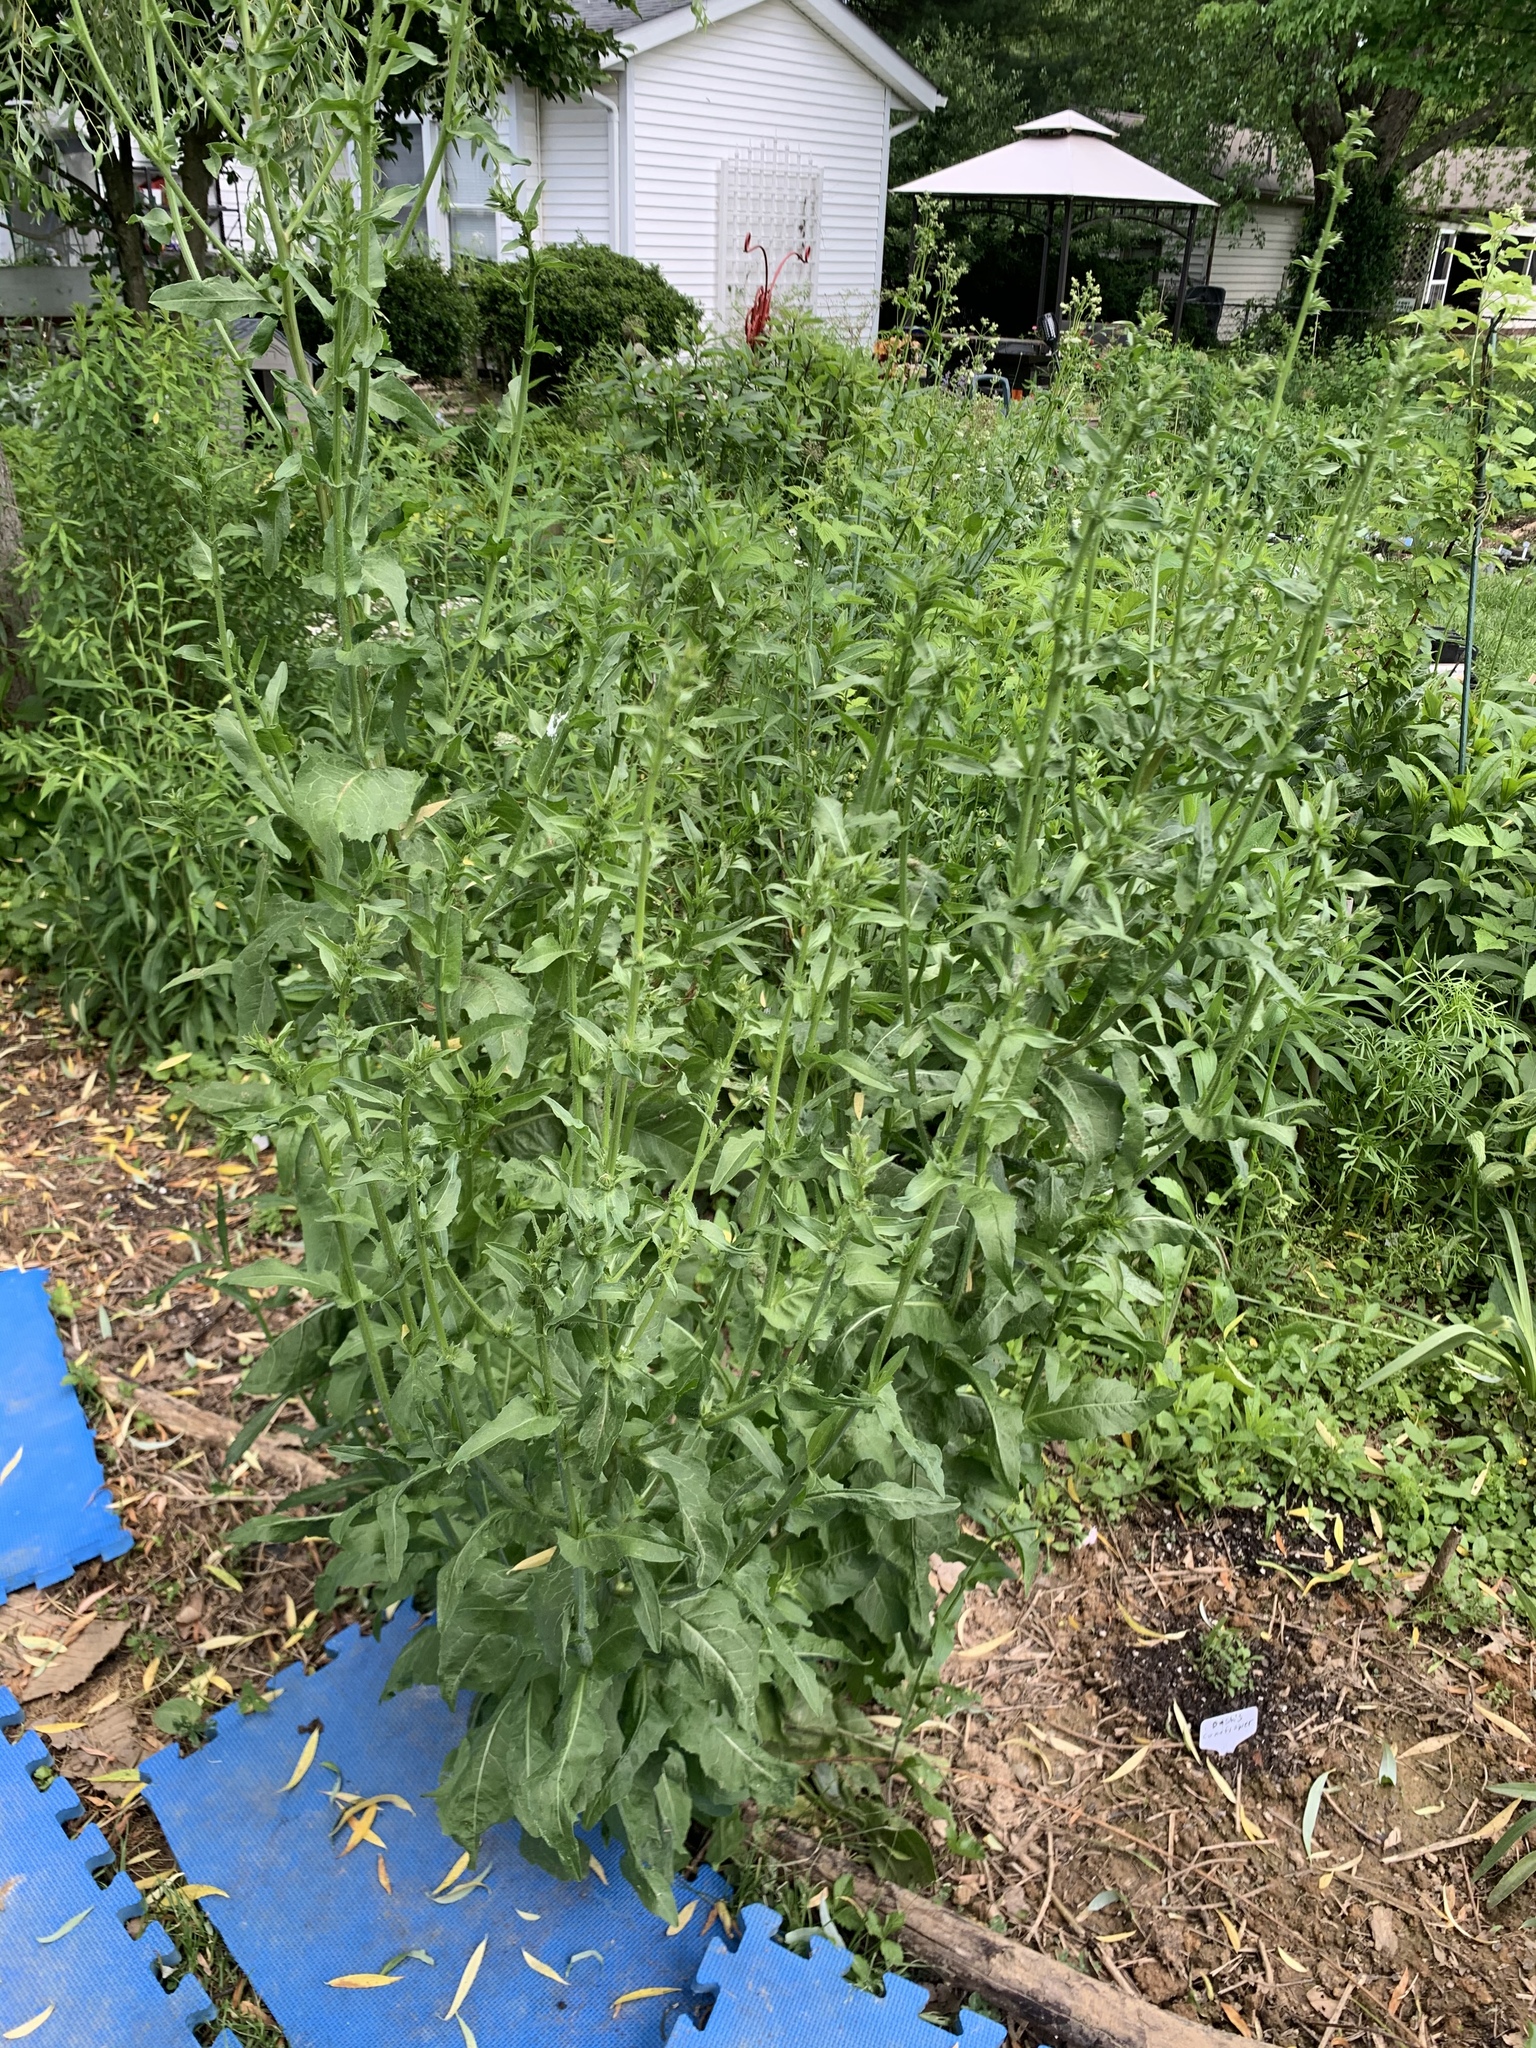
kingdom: Plantae
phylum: Tracheophyta
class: Magnoliopsida
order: Asterales
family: Asteraceae
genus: Cichorium
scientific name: Cichorium intybus
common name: Chicory
